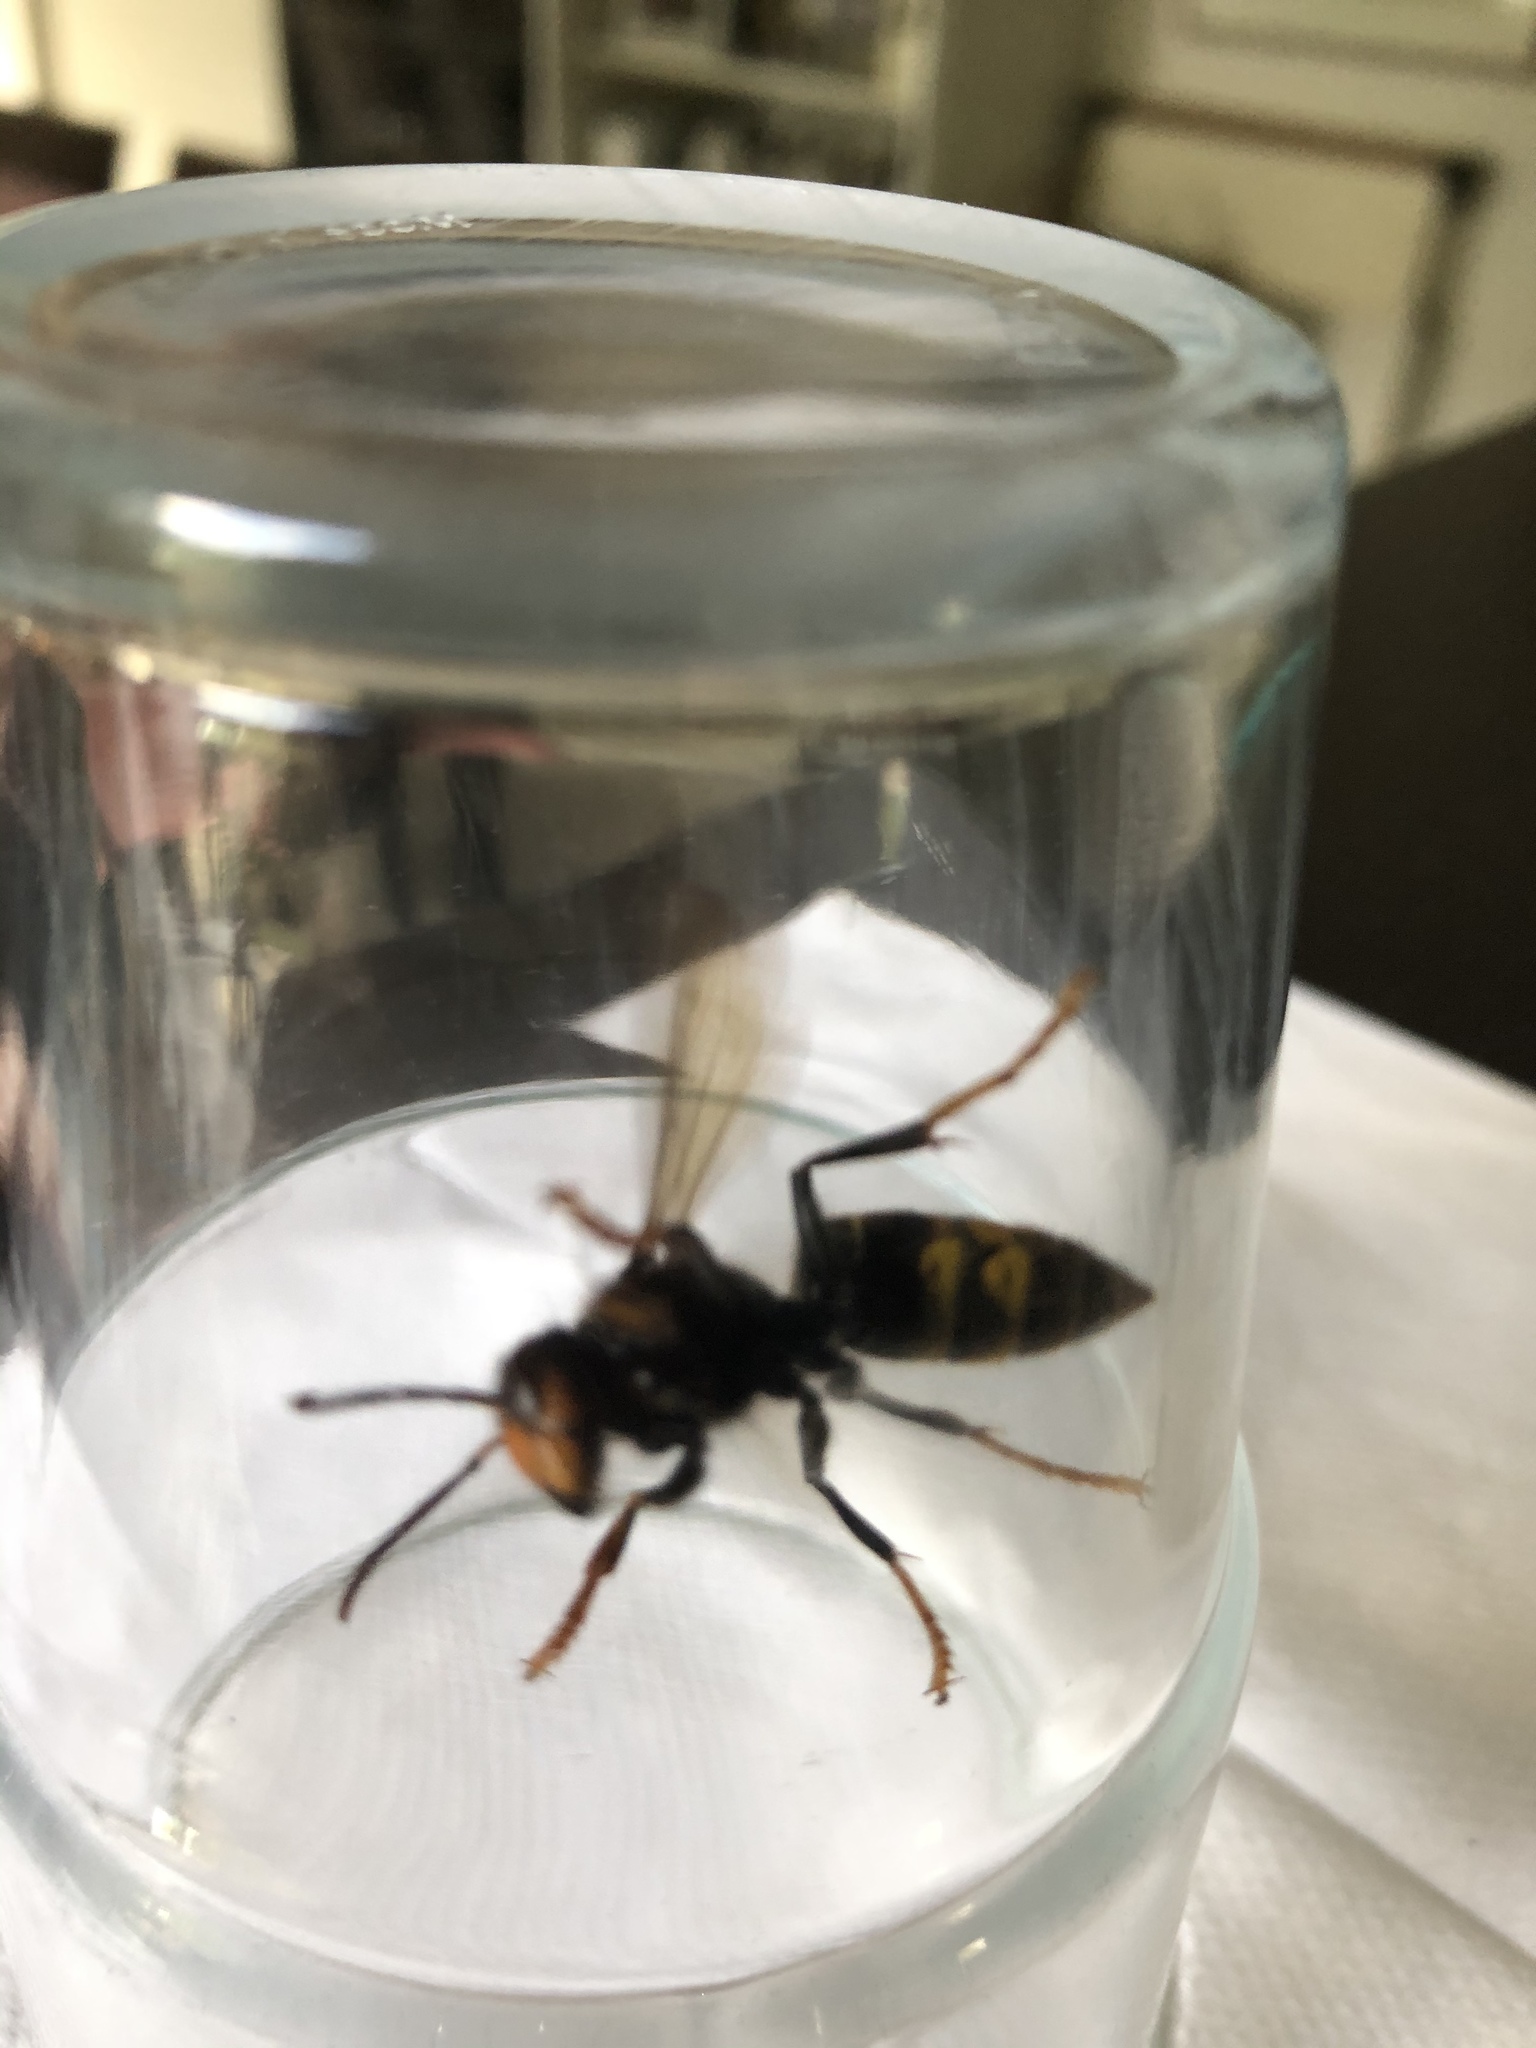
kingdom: Animalia
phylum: Arthropoda
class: Insecta
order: Hymenoptera
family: Vespidae
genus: Vespa
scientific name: Vespa velutina
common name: Asian hornet
